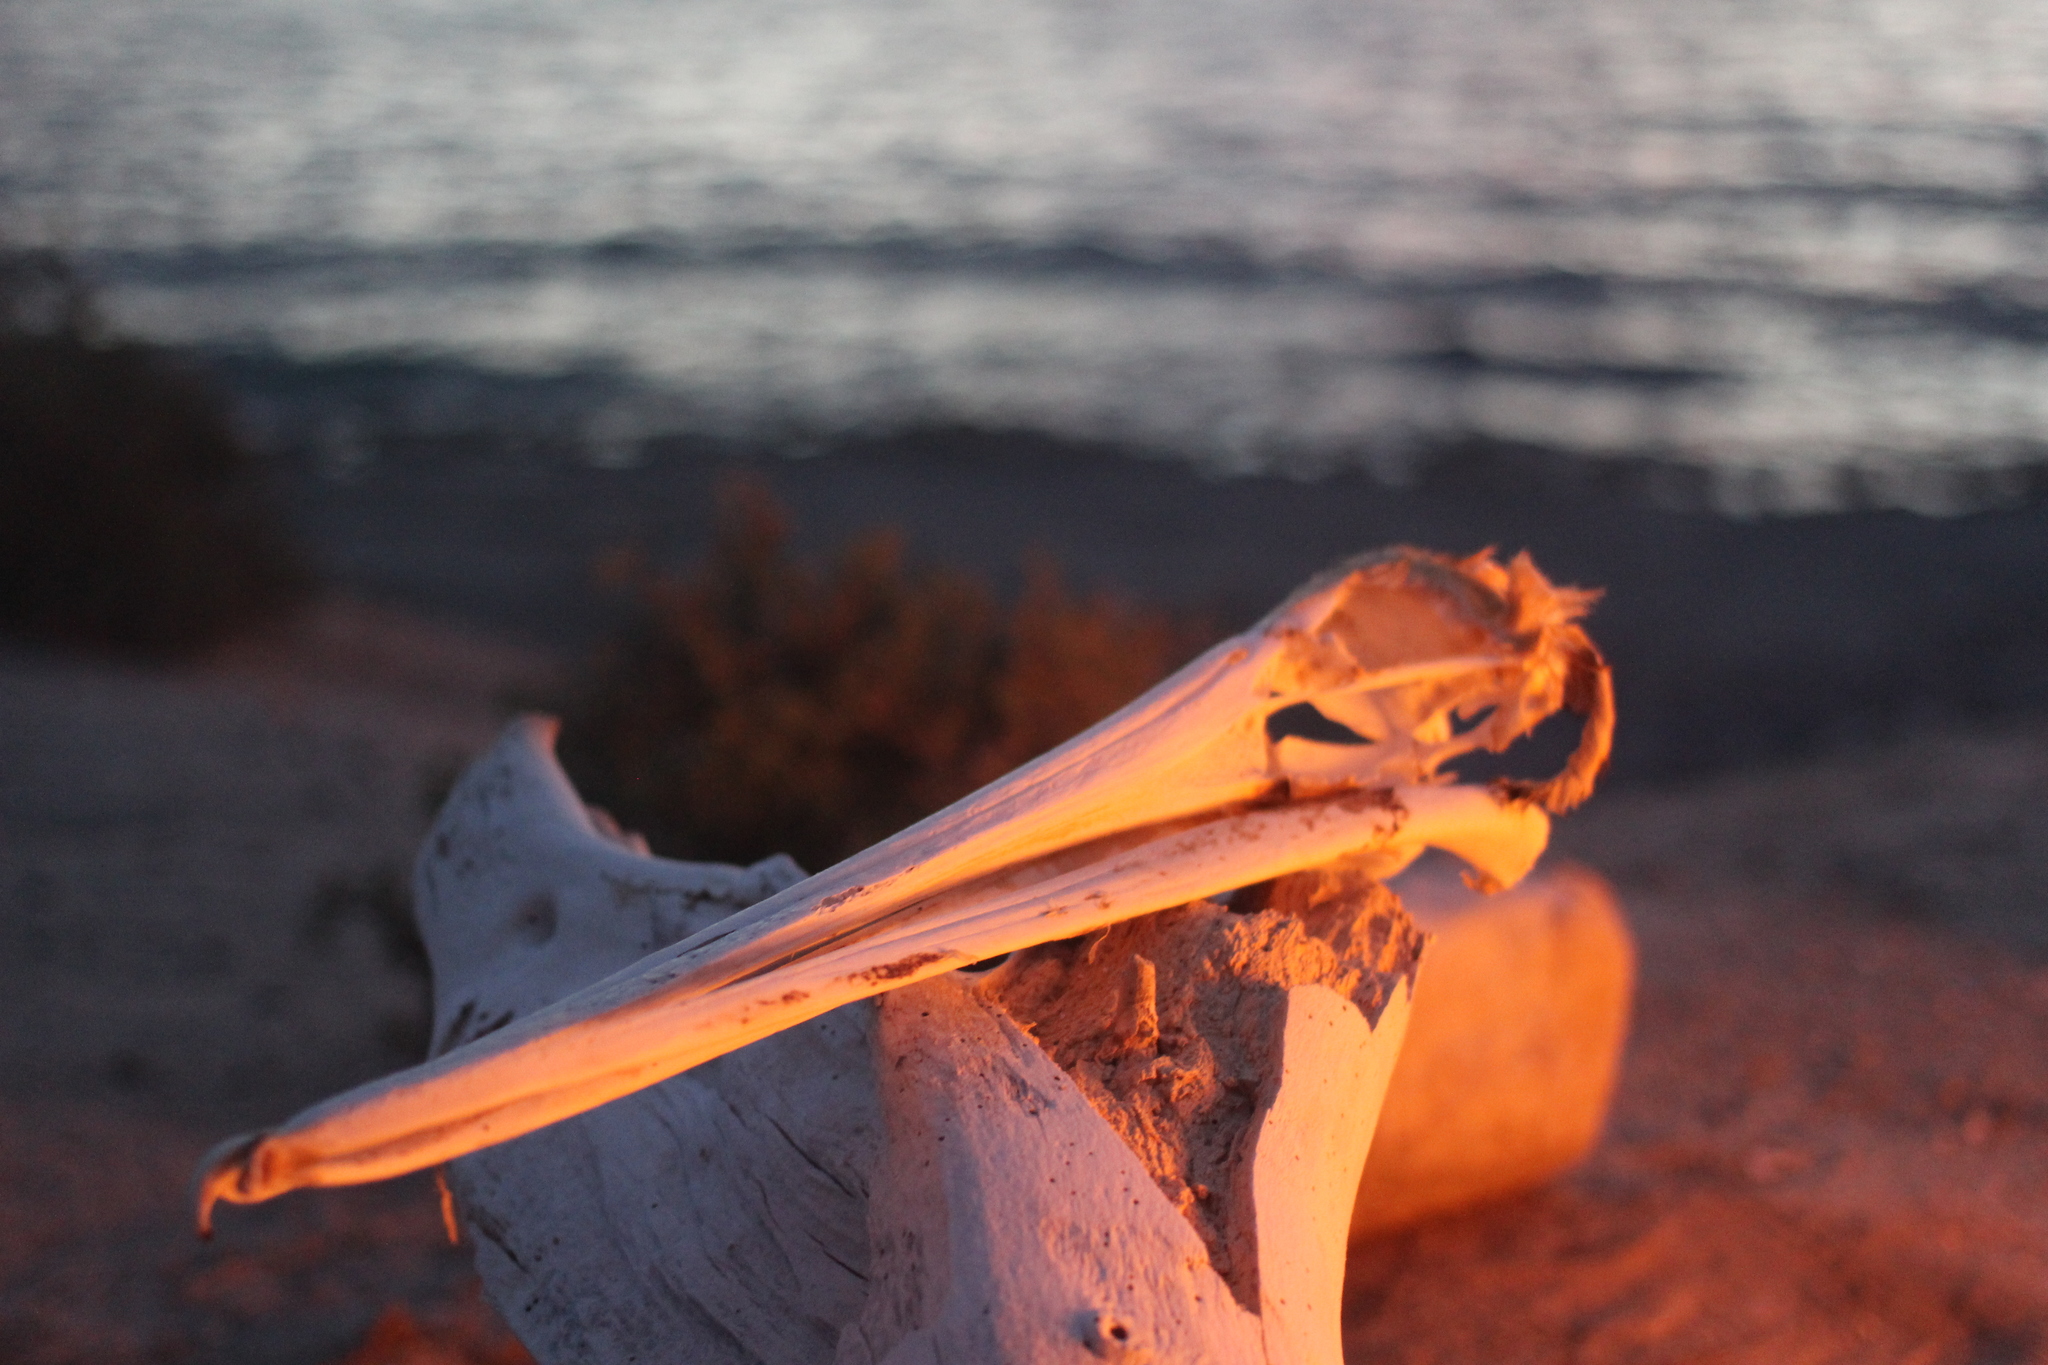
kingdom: Animalia
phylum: Chordata
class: Aves
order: Pelecaniformes
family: Pelecanidae
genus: Pelecanus
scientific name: Pelecanus occidentalis
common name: Brown pelican
